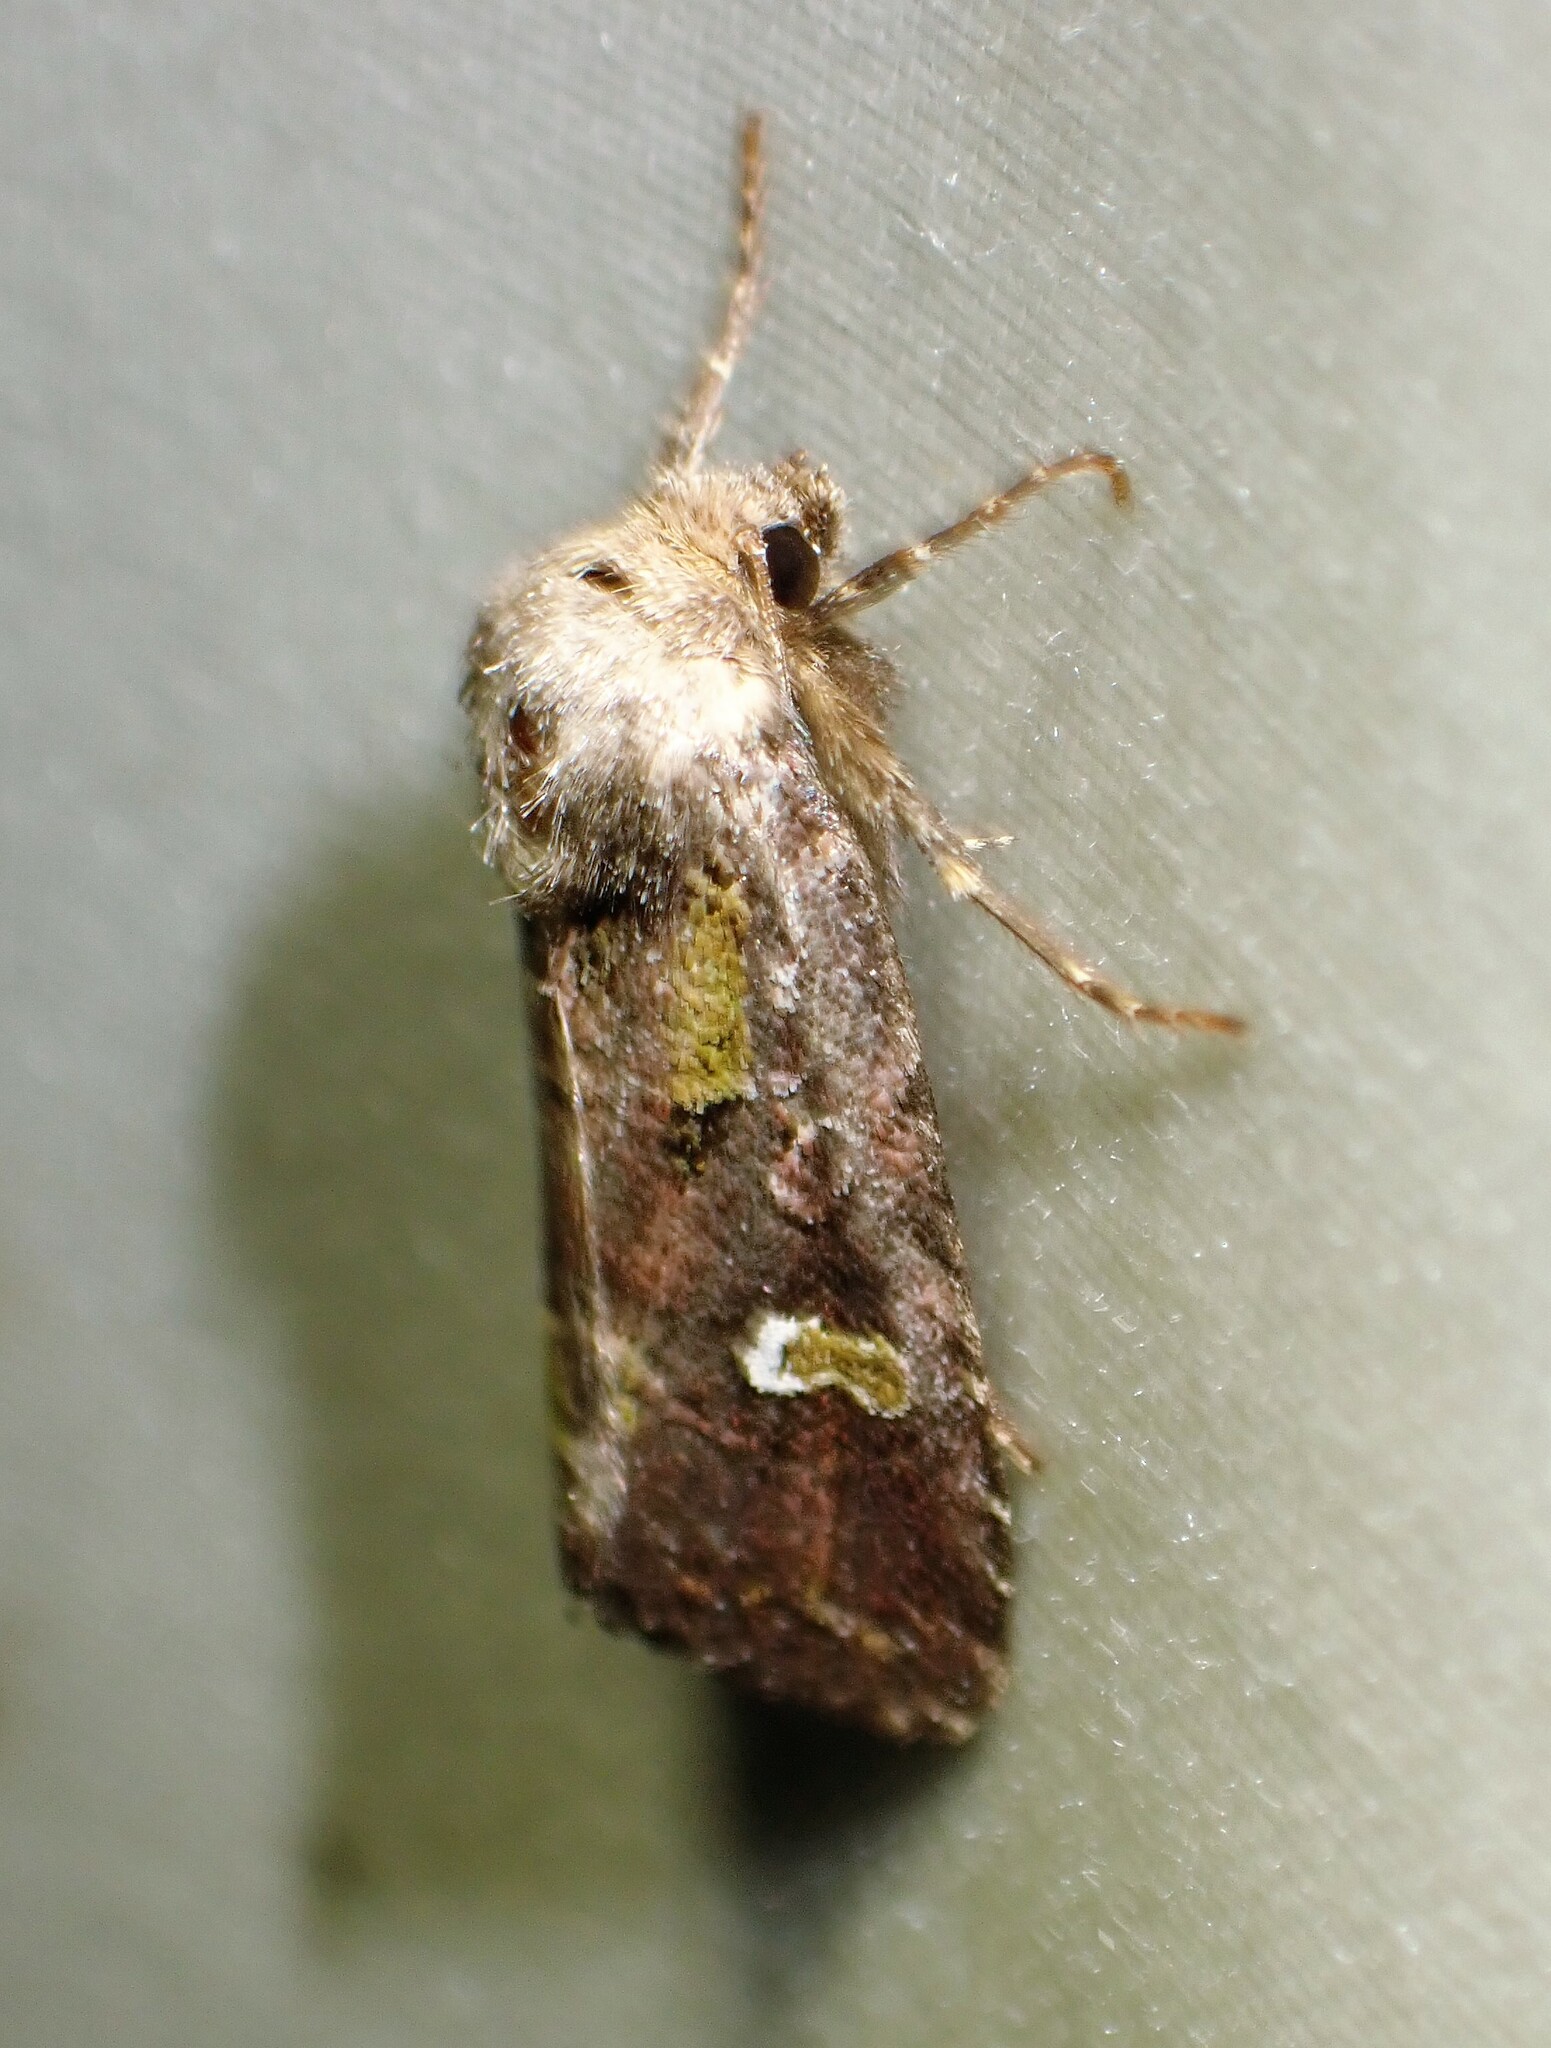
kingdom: Animalia
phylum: Arthropoda
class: Insecta
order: Lepidoptera
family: Noctuidae
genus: Lacinipolia
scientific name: Lacinipolia renigera
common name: Kidney-spotted minor
